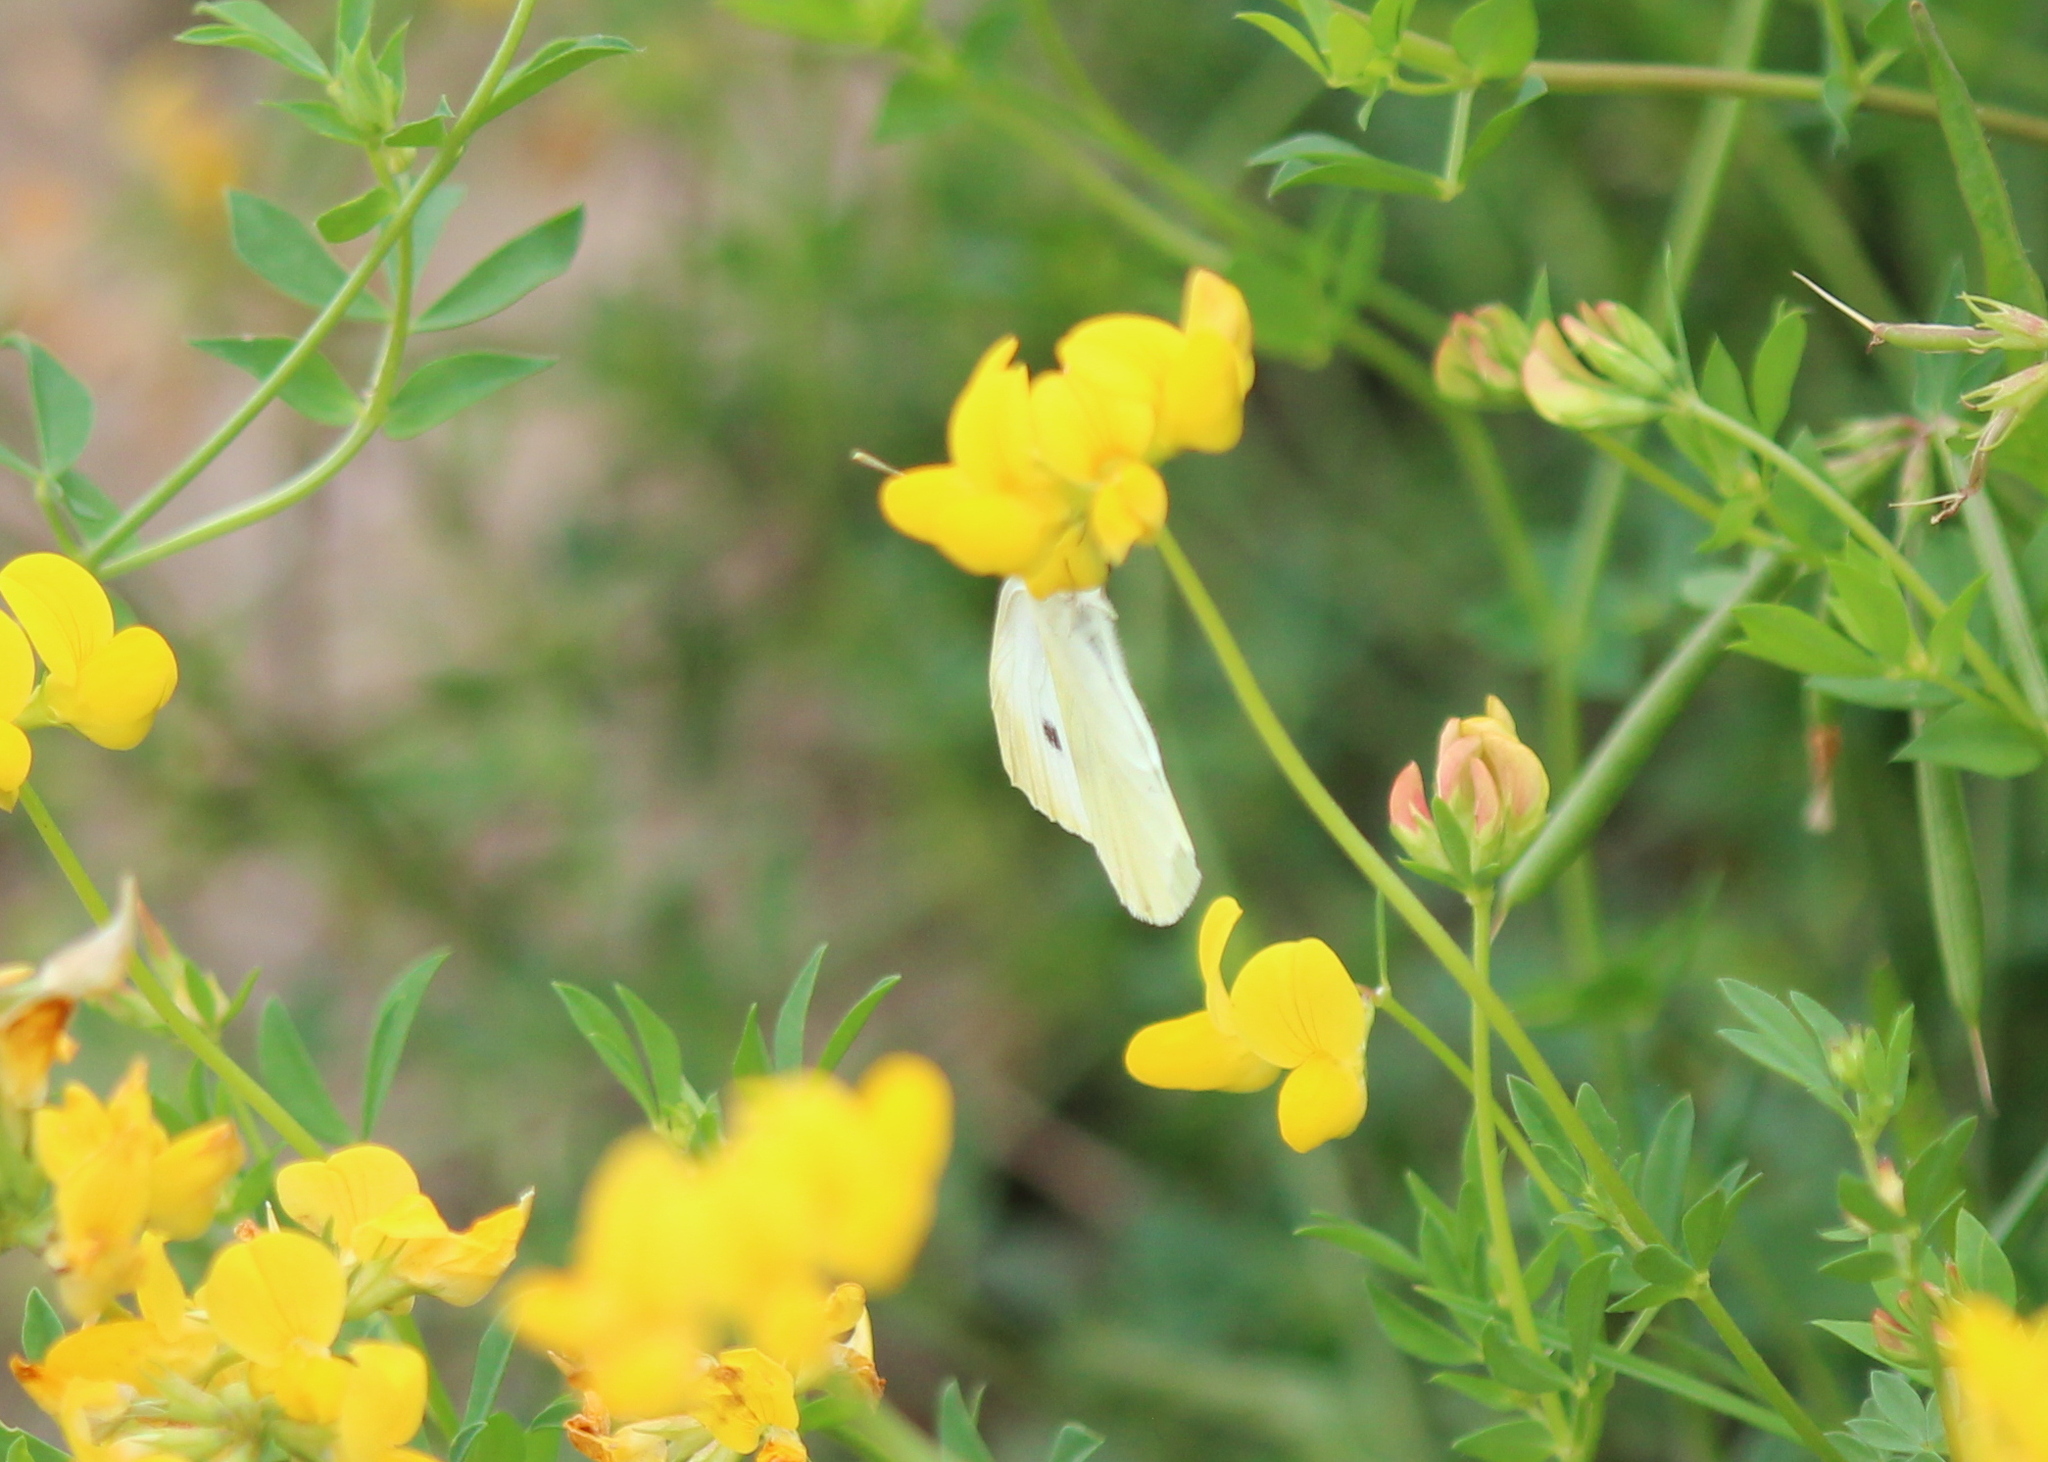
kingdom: Animalia
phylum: Arthropoda
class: Insecta
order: Lepidoptera
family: Pieridae
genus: Pieris
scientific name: Pieris rapae
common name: Small white
